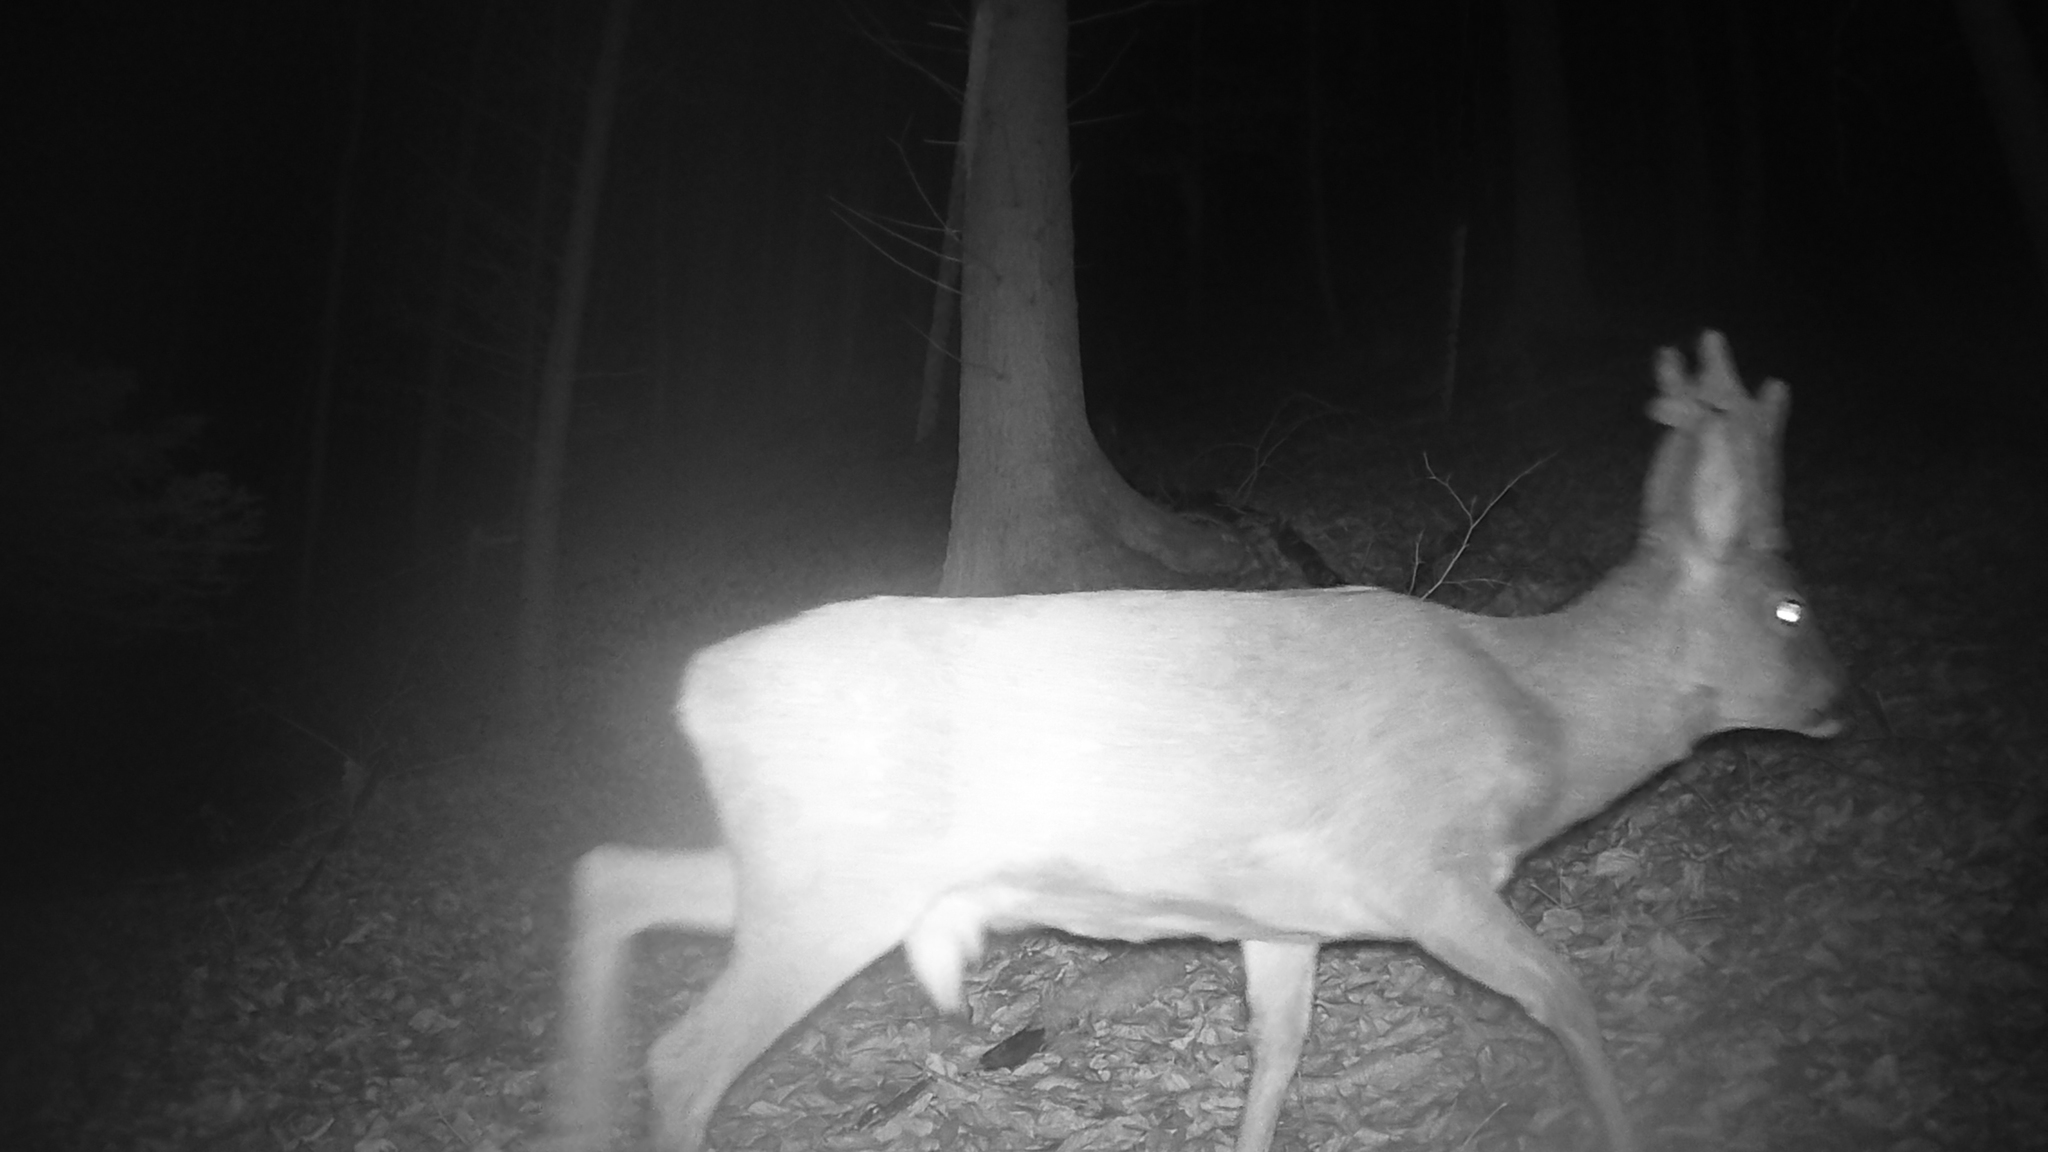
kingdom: Animalia
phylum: Chordata
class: Mammalia
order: Artiodactyla
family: Cervidae
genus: Capreolus
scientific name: Capreolus capreolus
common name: Western roe deer
